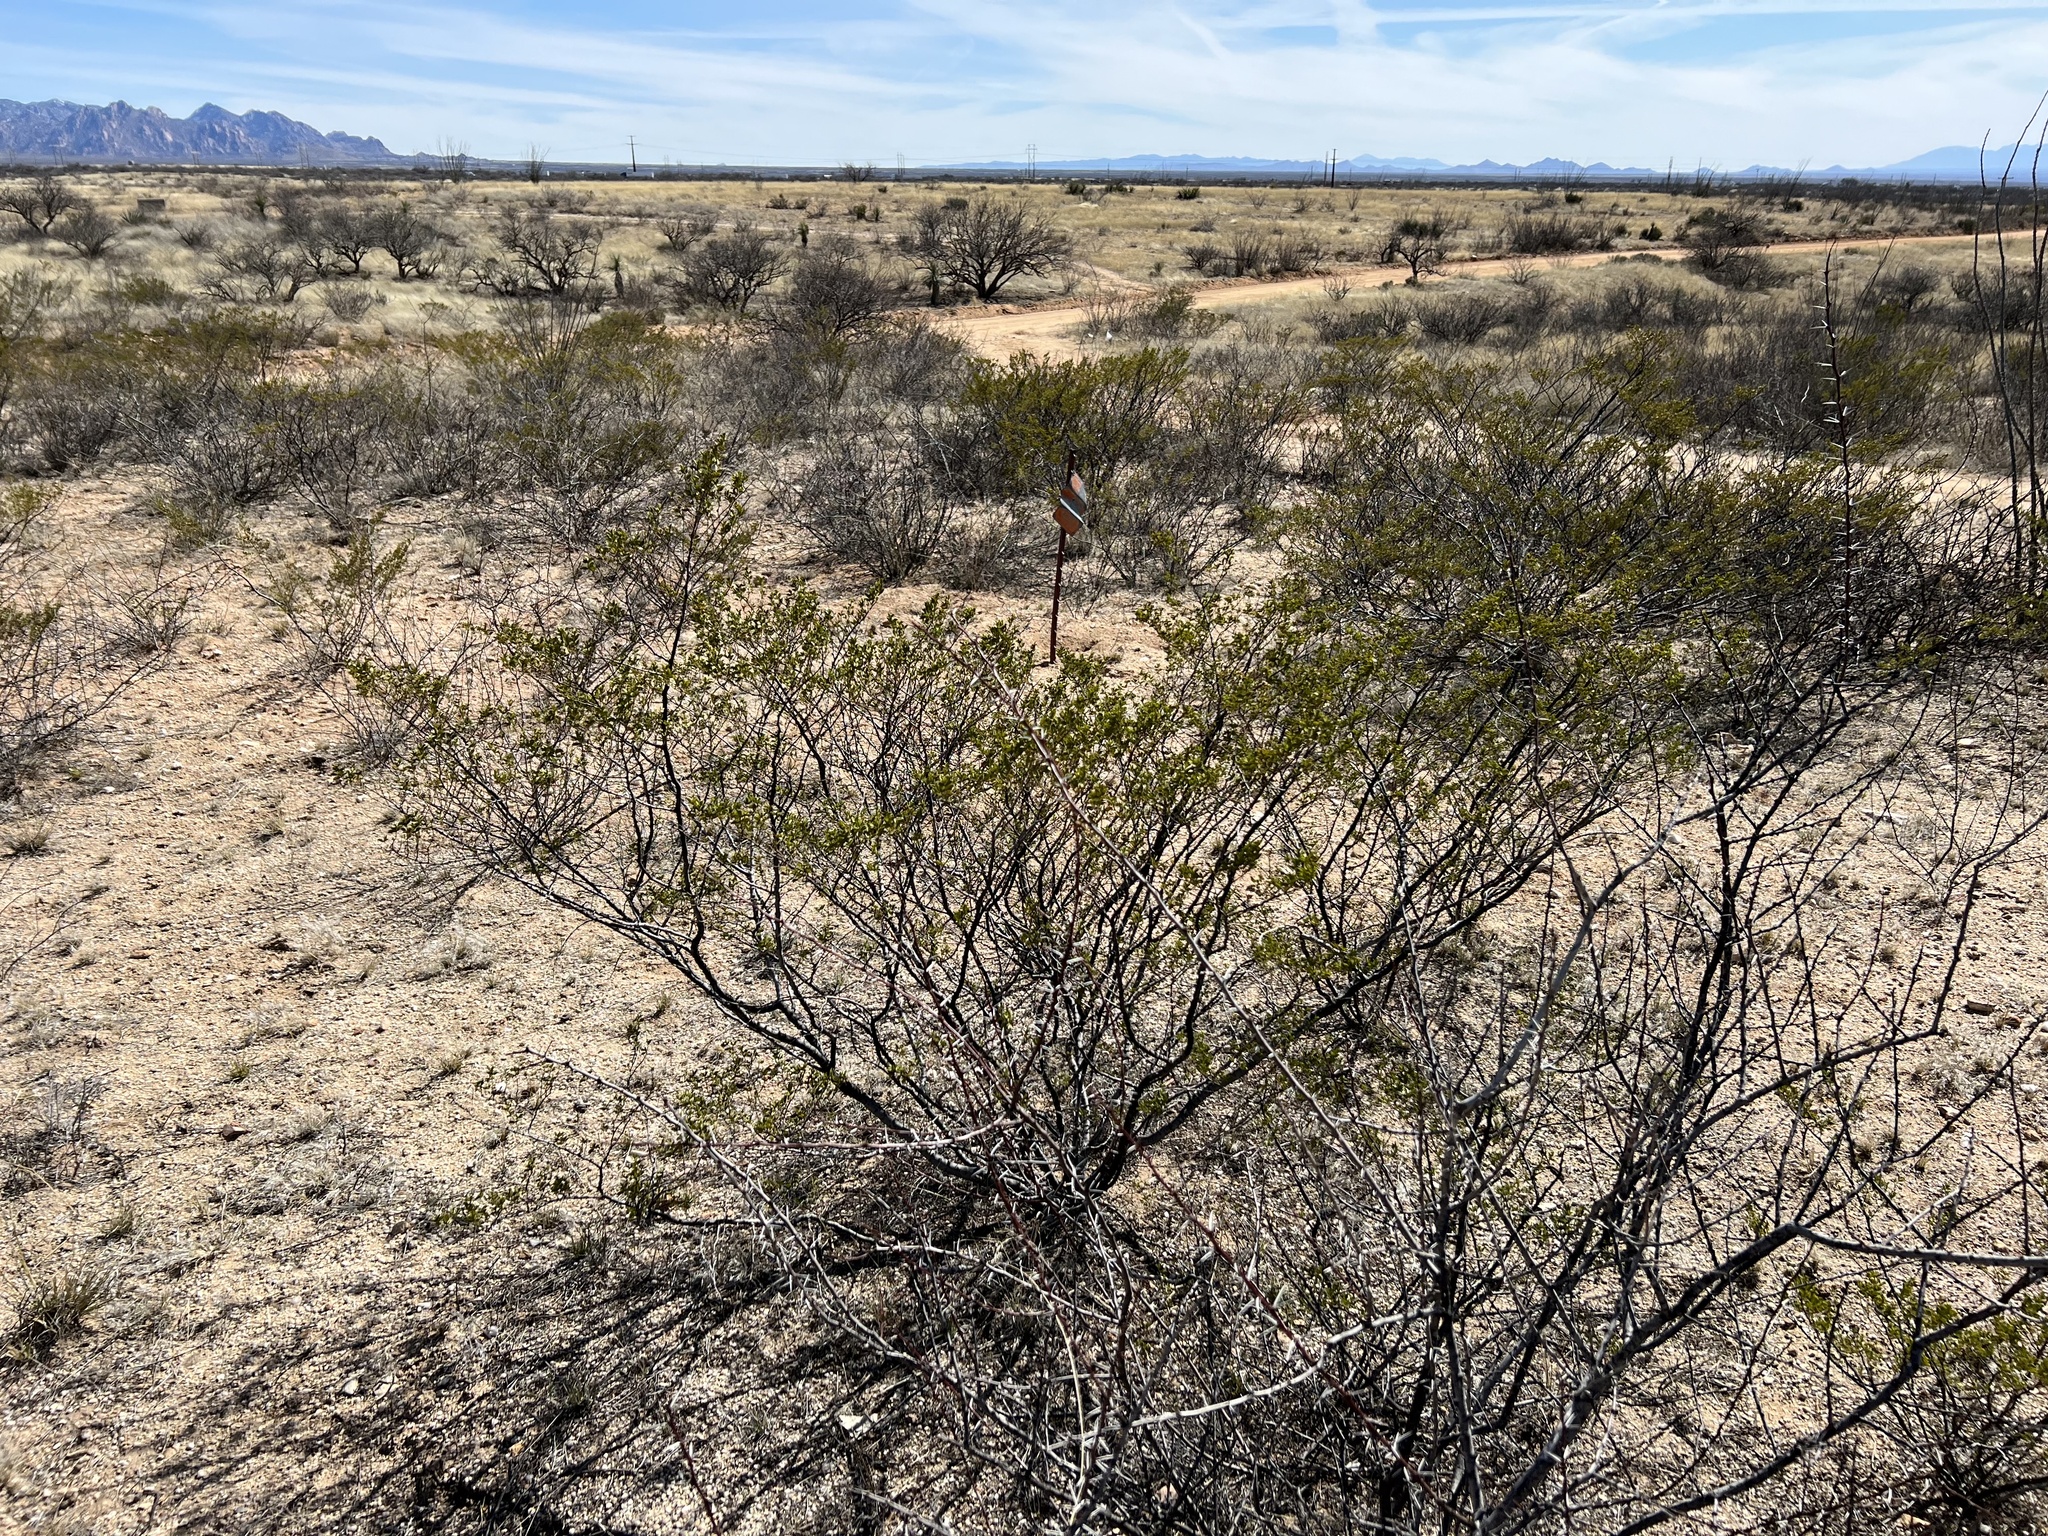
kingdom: Plantae
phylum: Tracheophyta
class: Magnoliopsida
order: Zygophyllales
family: Zygophyllaceae
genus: Larrea
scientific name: Larrea tridentata
